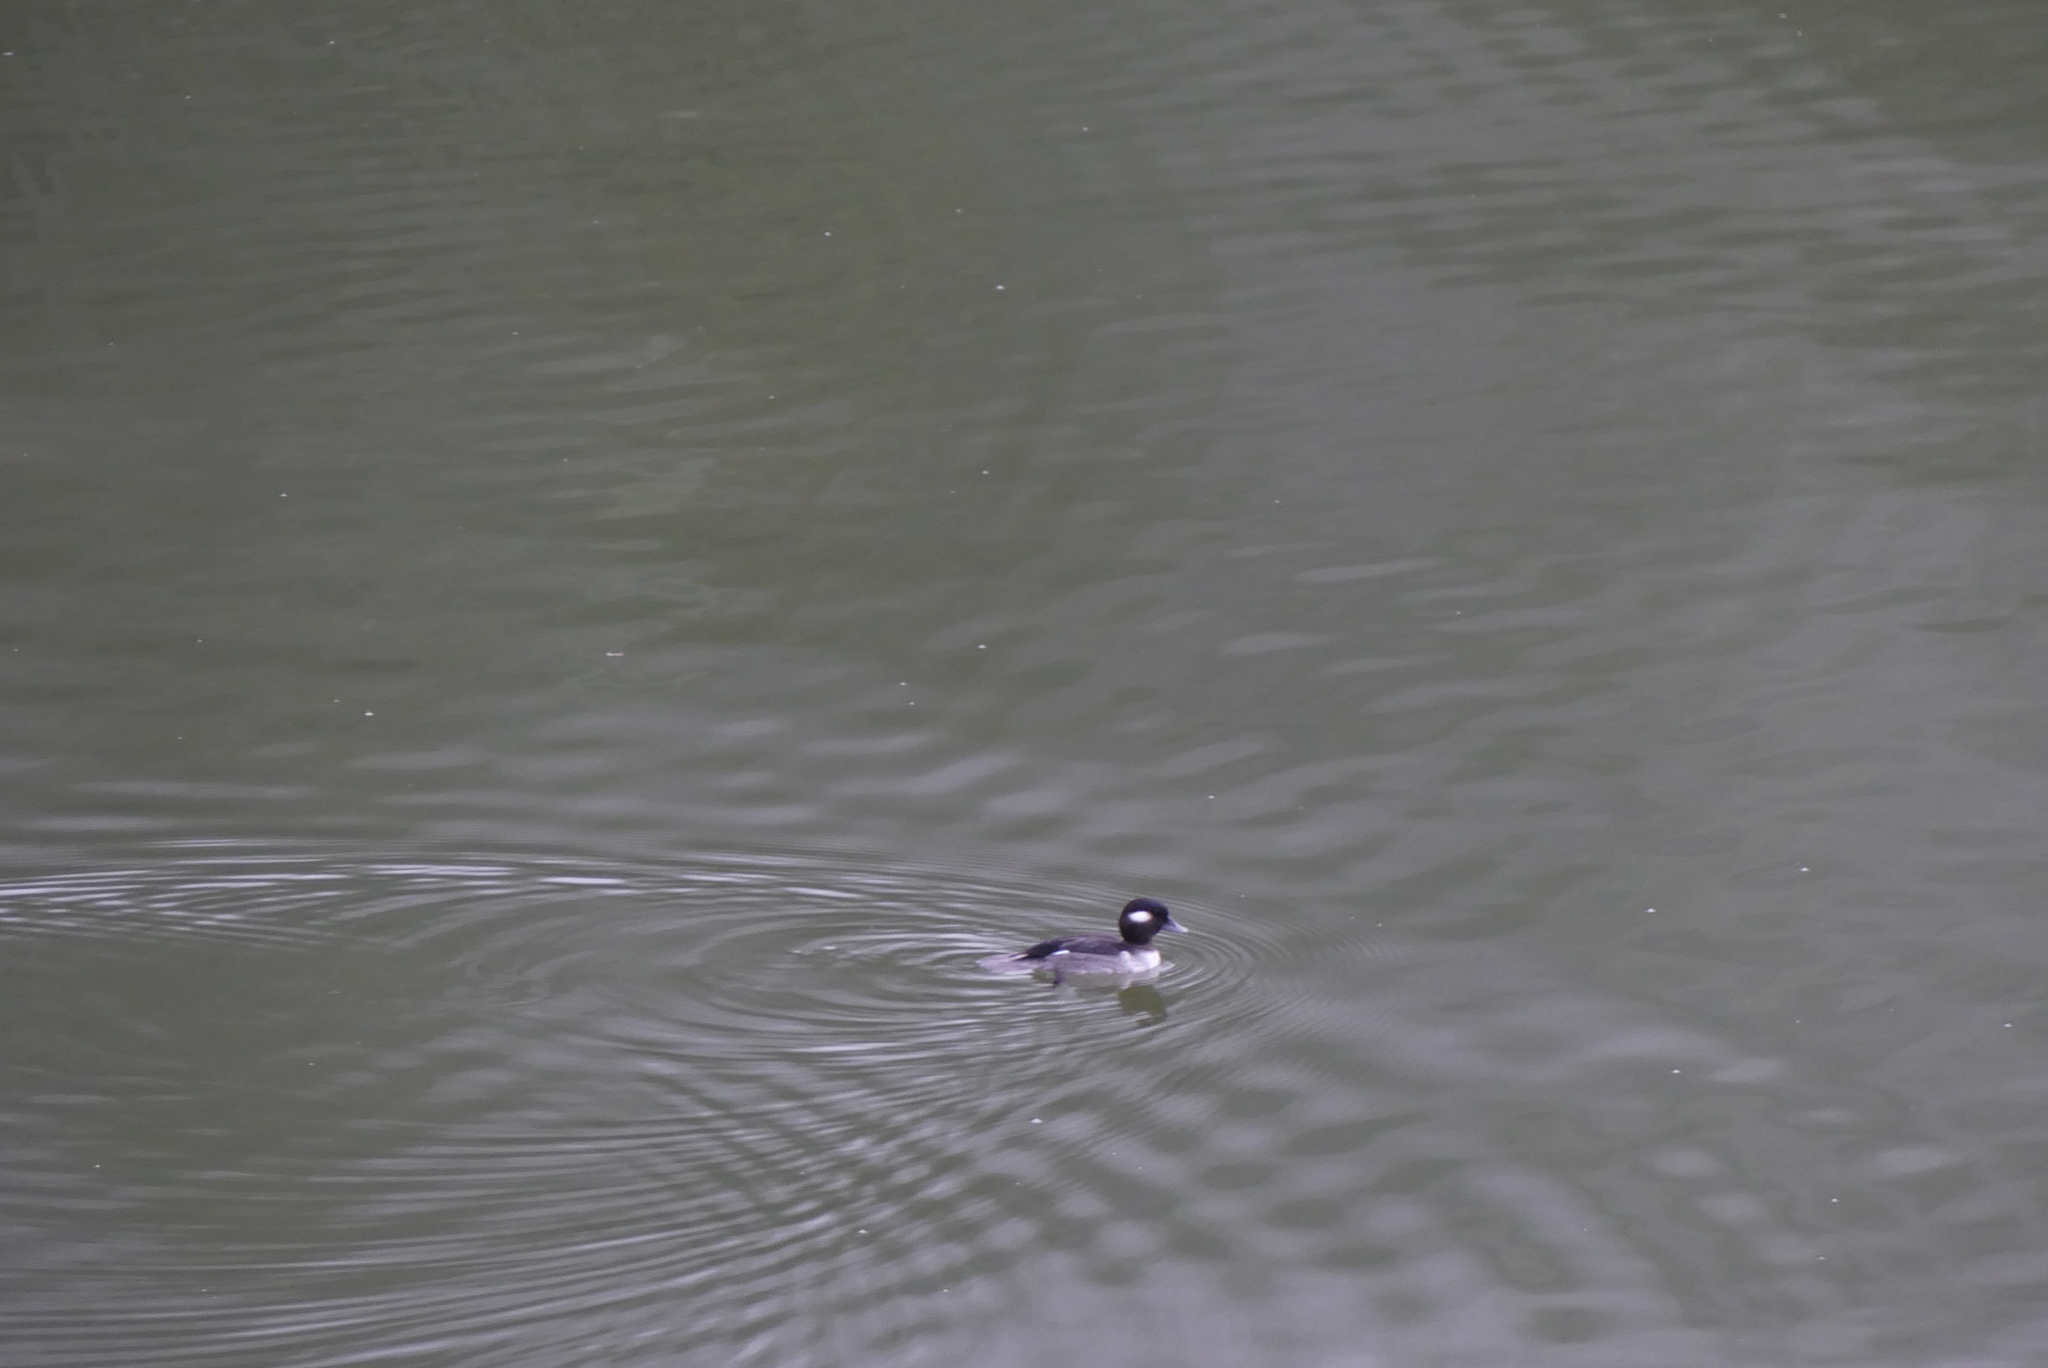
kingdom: Animalia
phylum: Chordata
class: Aves
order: Anseriformes
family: Anatidae
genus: Bucephala
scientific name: Bucephala albeola
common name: Bufflehead
